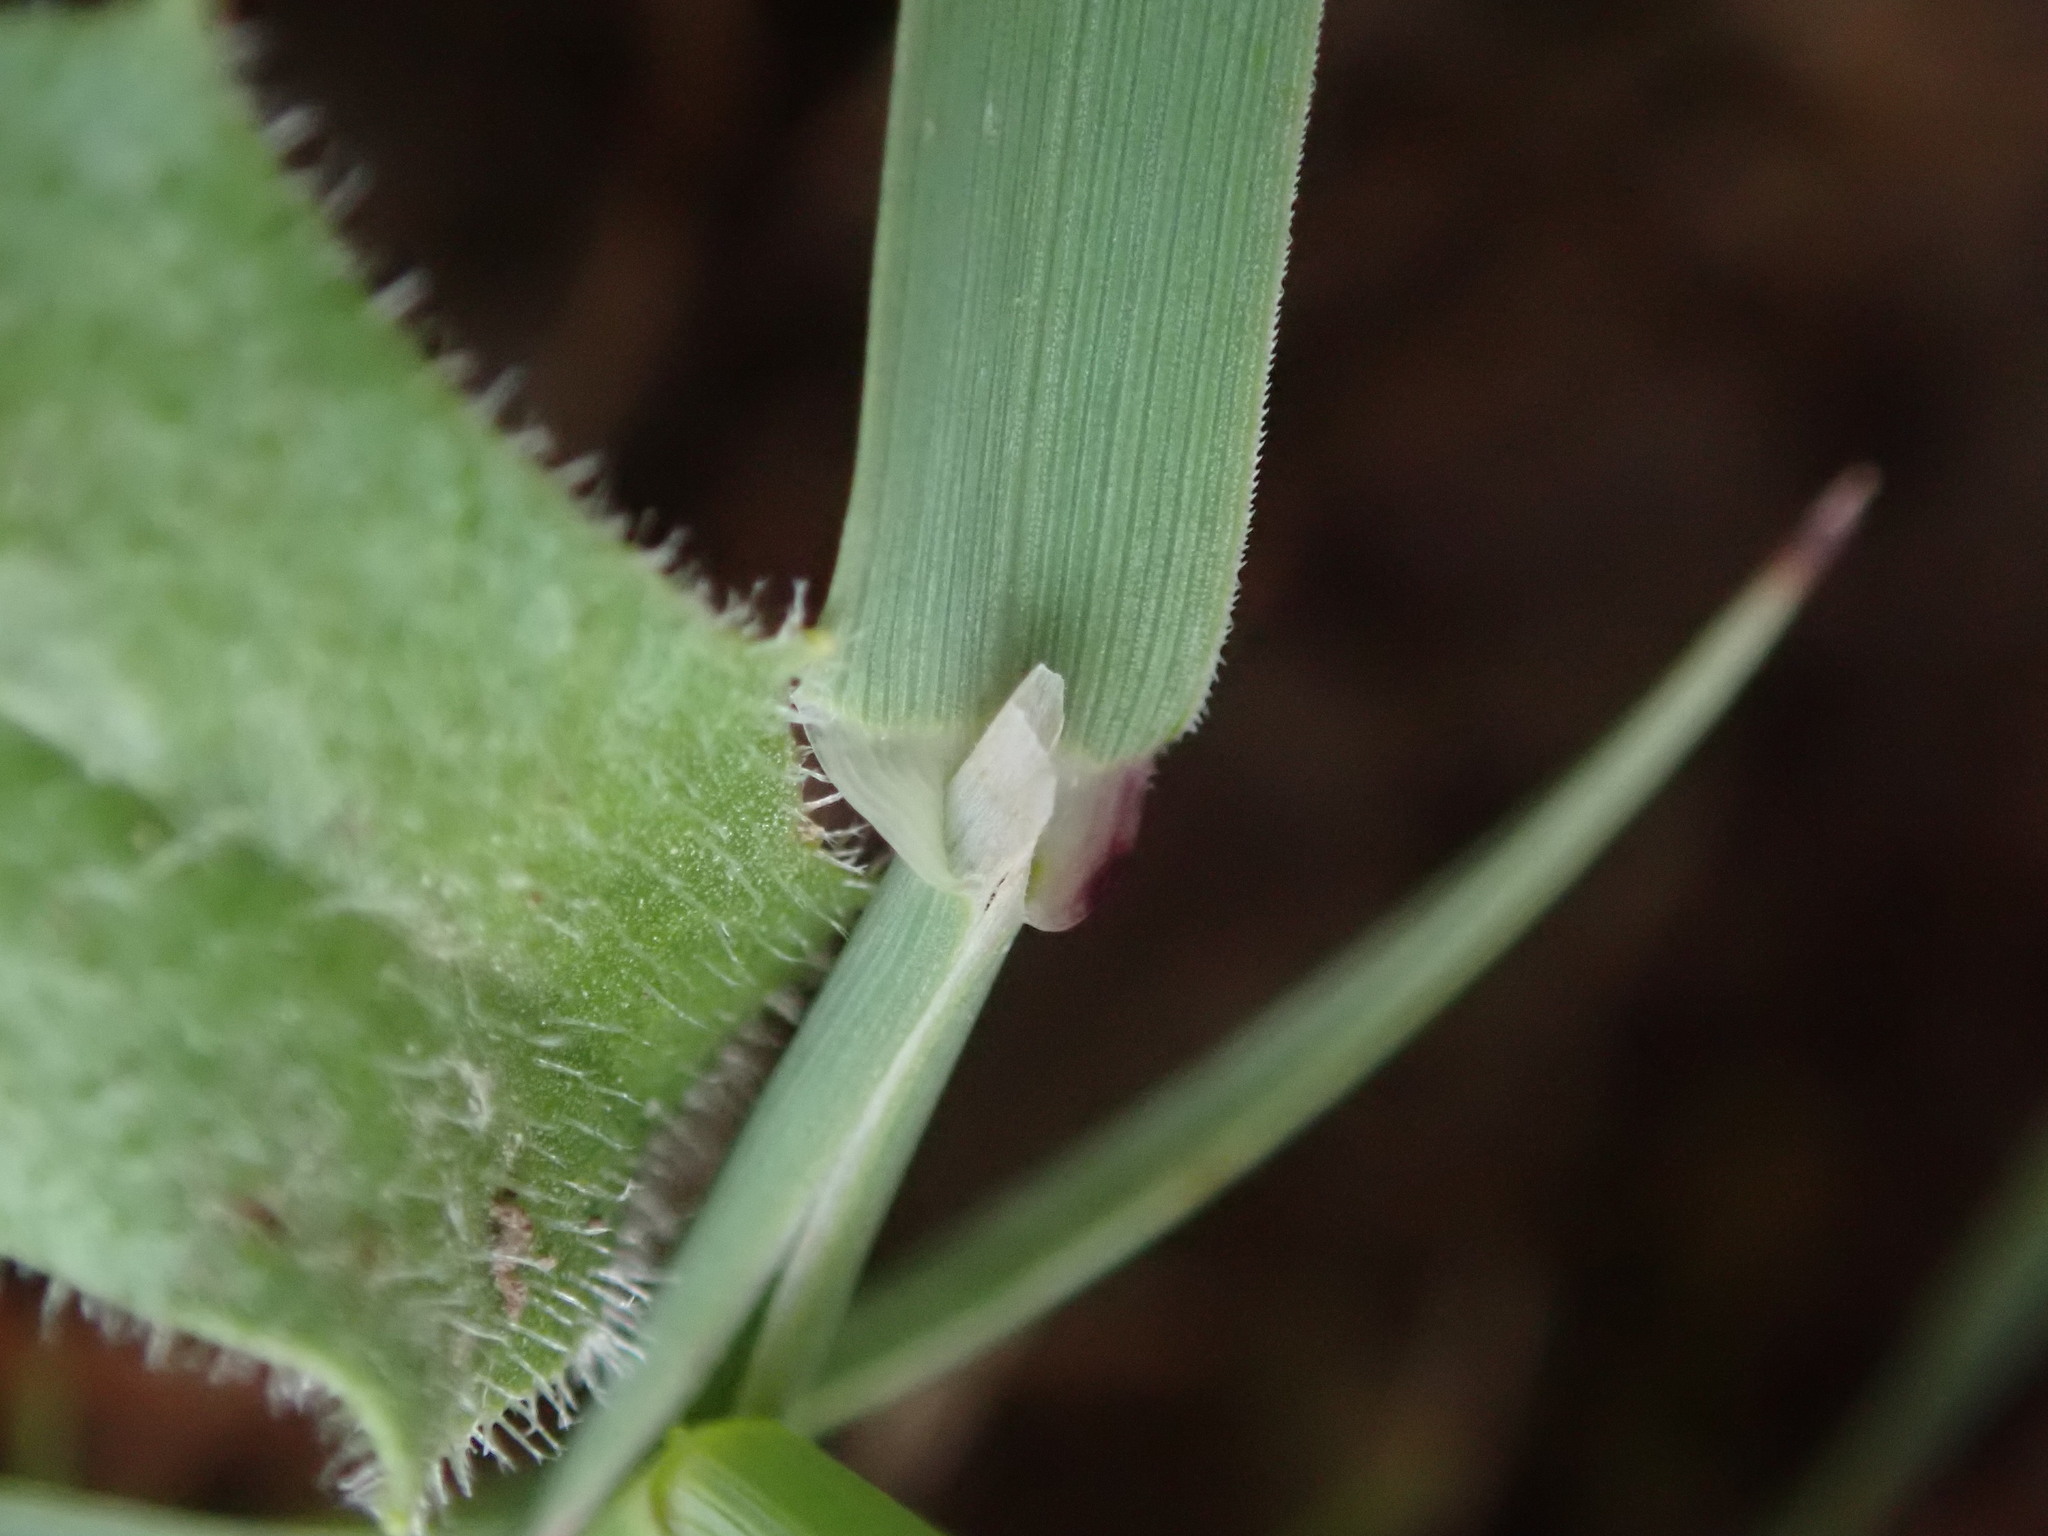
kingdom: Plantae
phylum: Tracheophyta
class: Liliopsida
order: Poales
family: Poaceae
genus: Phleum
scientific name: Phleum bertolonii
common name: Smaller cat's-tail
